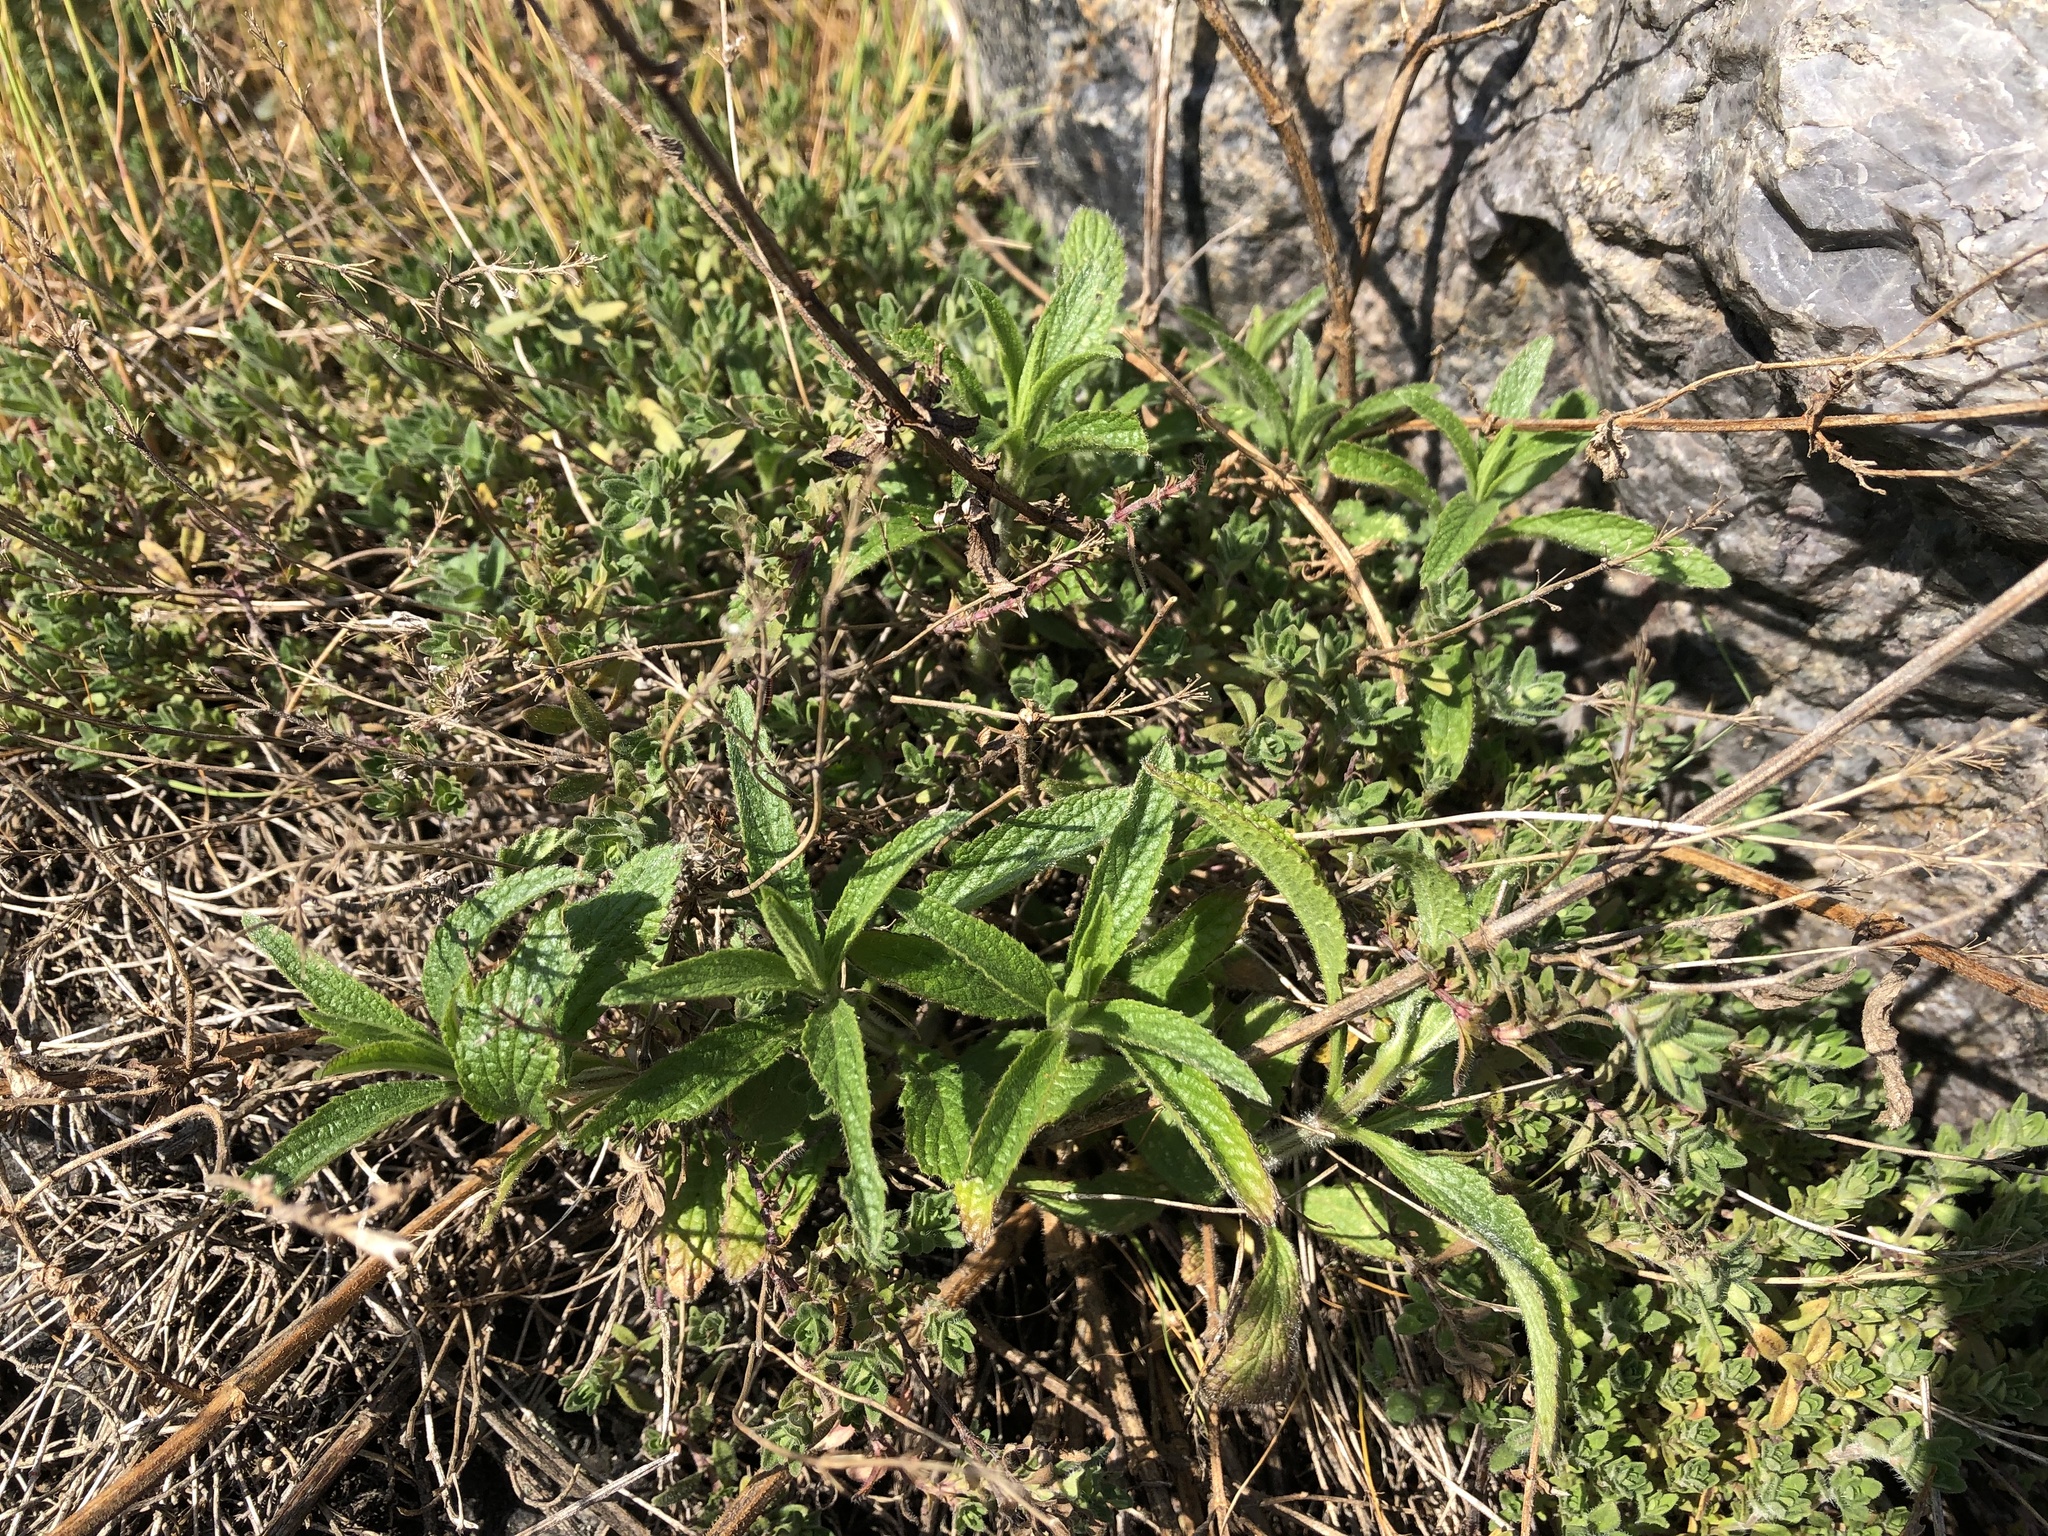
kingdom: Plantae
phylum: Tracheophyta
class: Magnoliopsida
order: Lamiales
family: Lamiaceae
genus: Stachys
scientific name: Stachys recta
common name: Perennial yellow-woundwort
